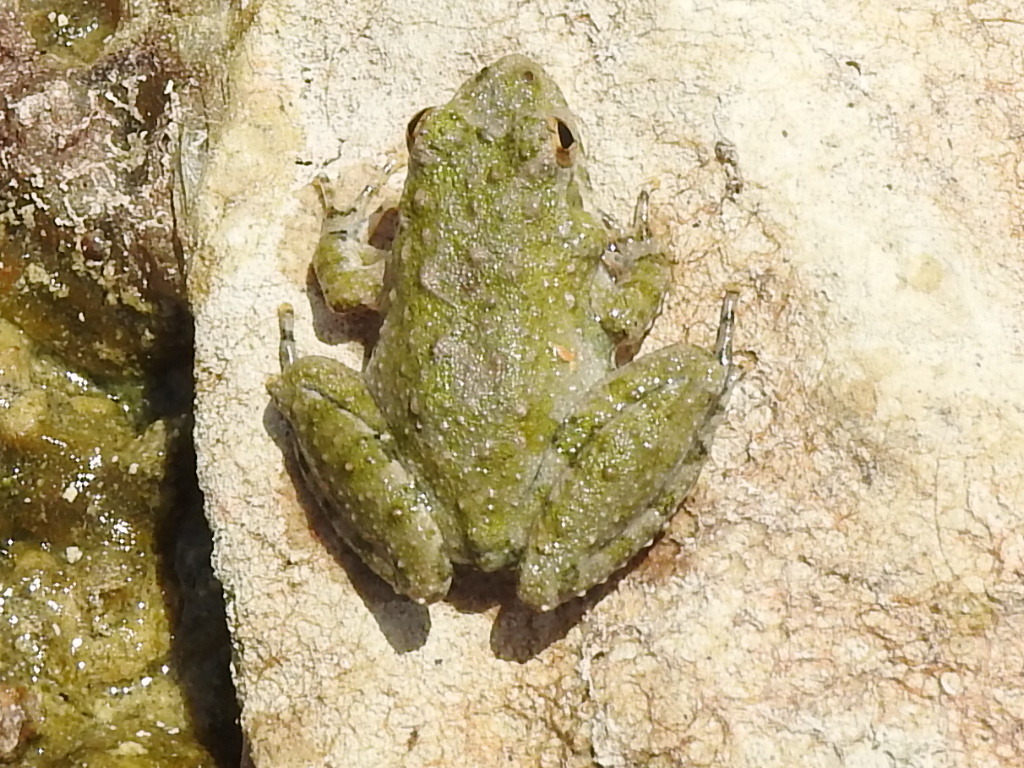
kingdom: Animalia
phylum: Chordata
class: Amphibia
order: Anura
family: Hylidae
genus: Acris
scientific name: Acris blanchardi
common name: Blanchard's cricket frog
